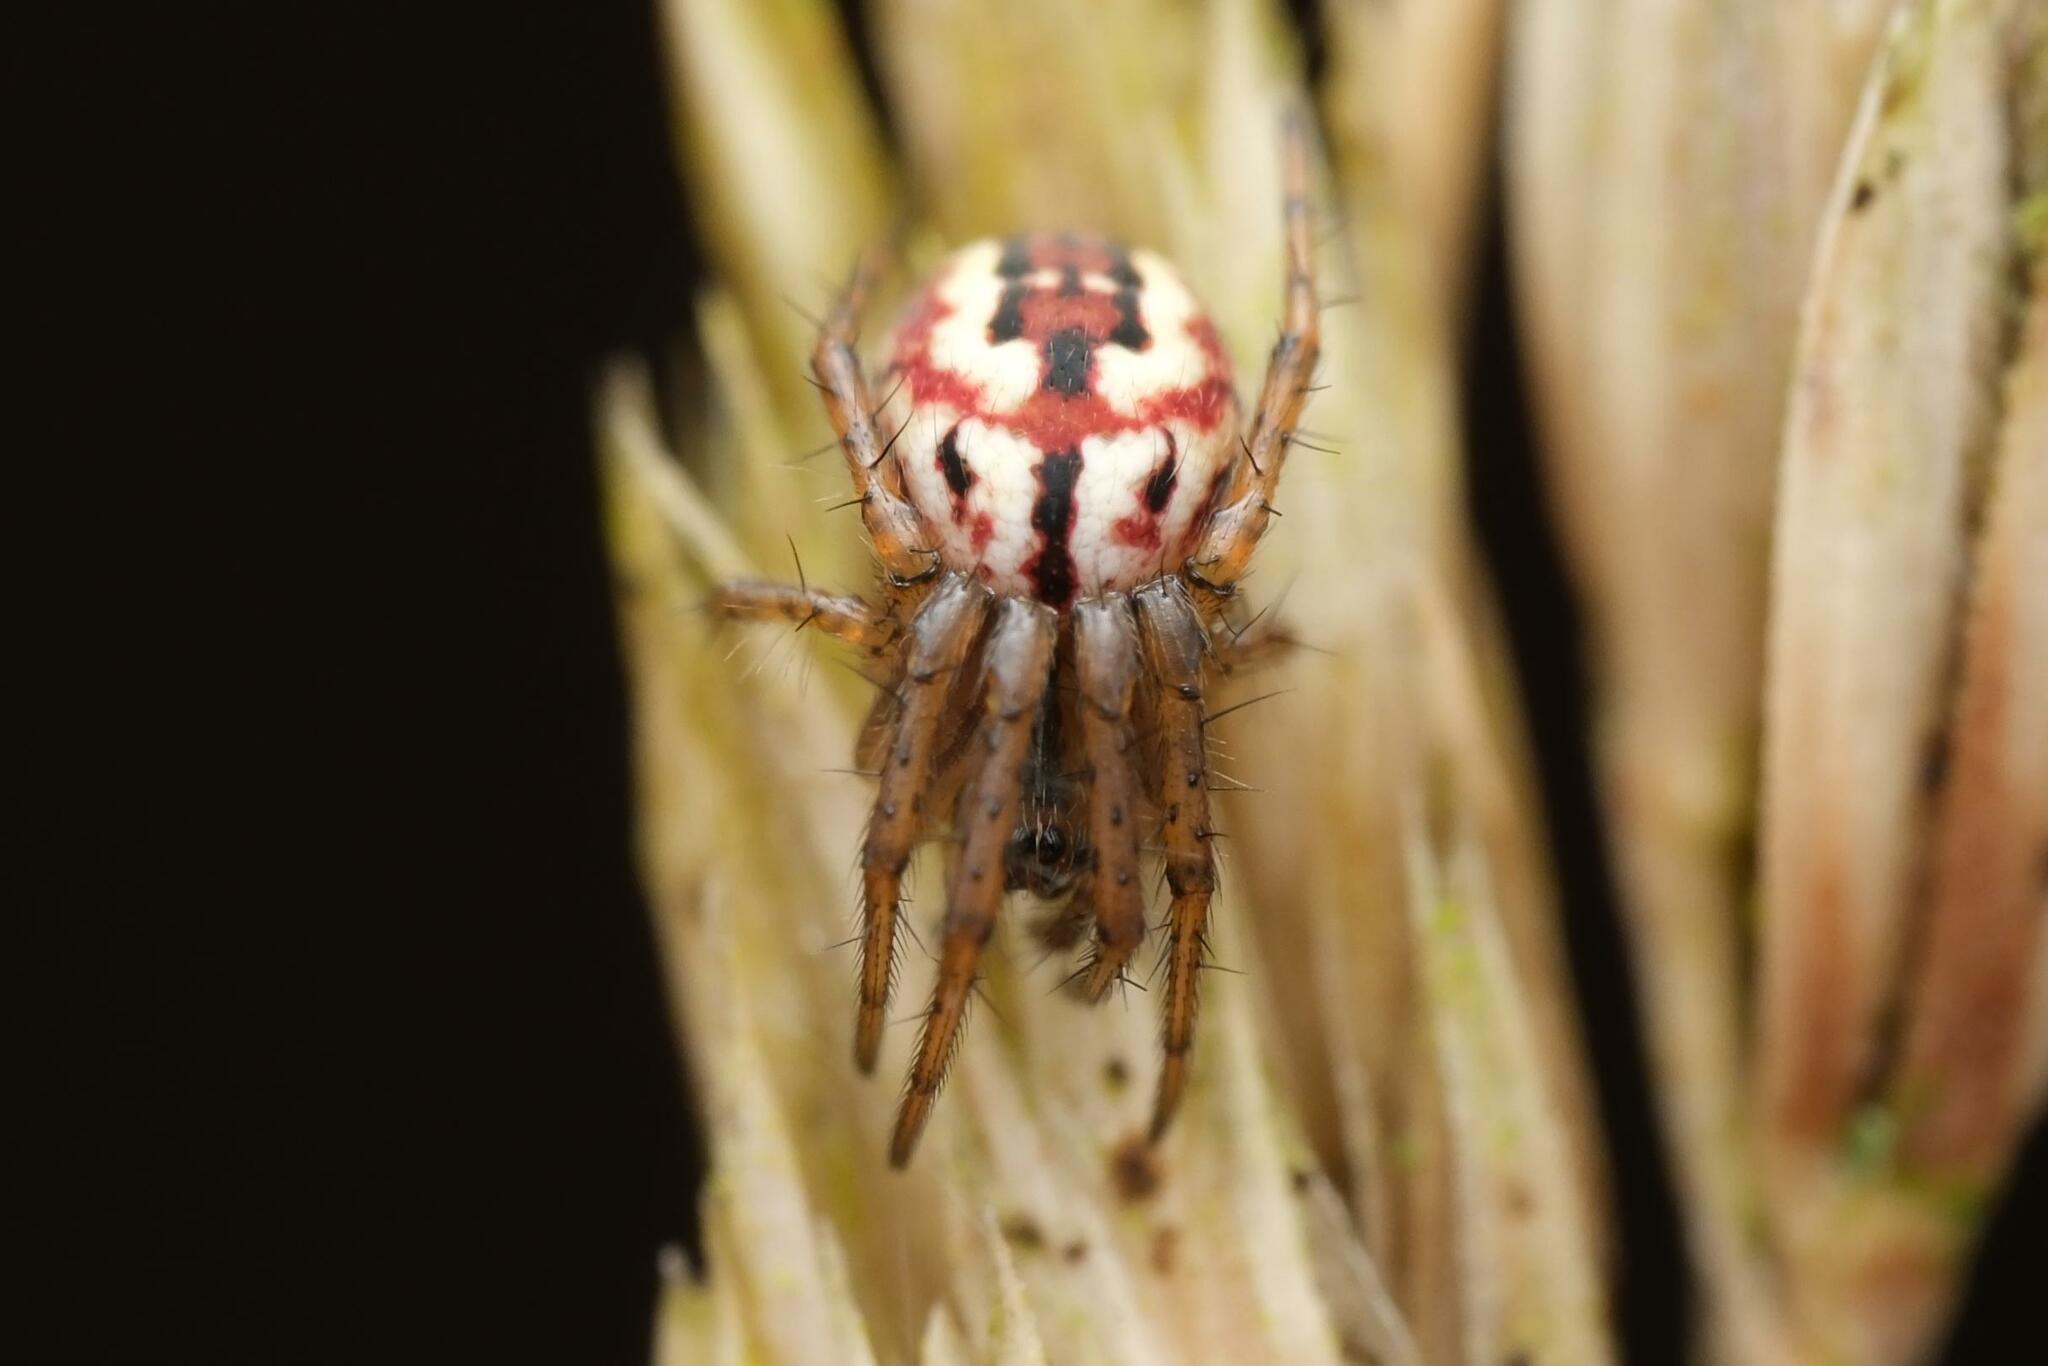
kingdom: Animalia
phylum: Arthropoda
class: Arachnida
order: Araneae
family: Araneidae
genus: Mangora
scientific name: Mangora acalypha
